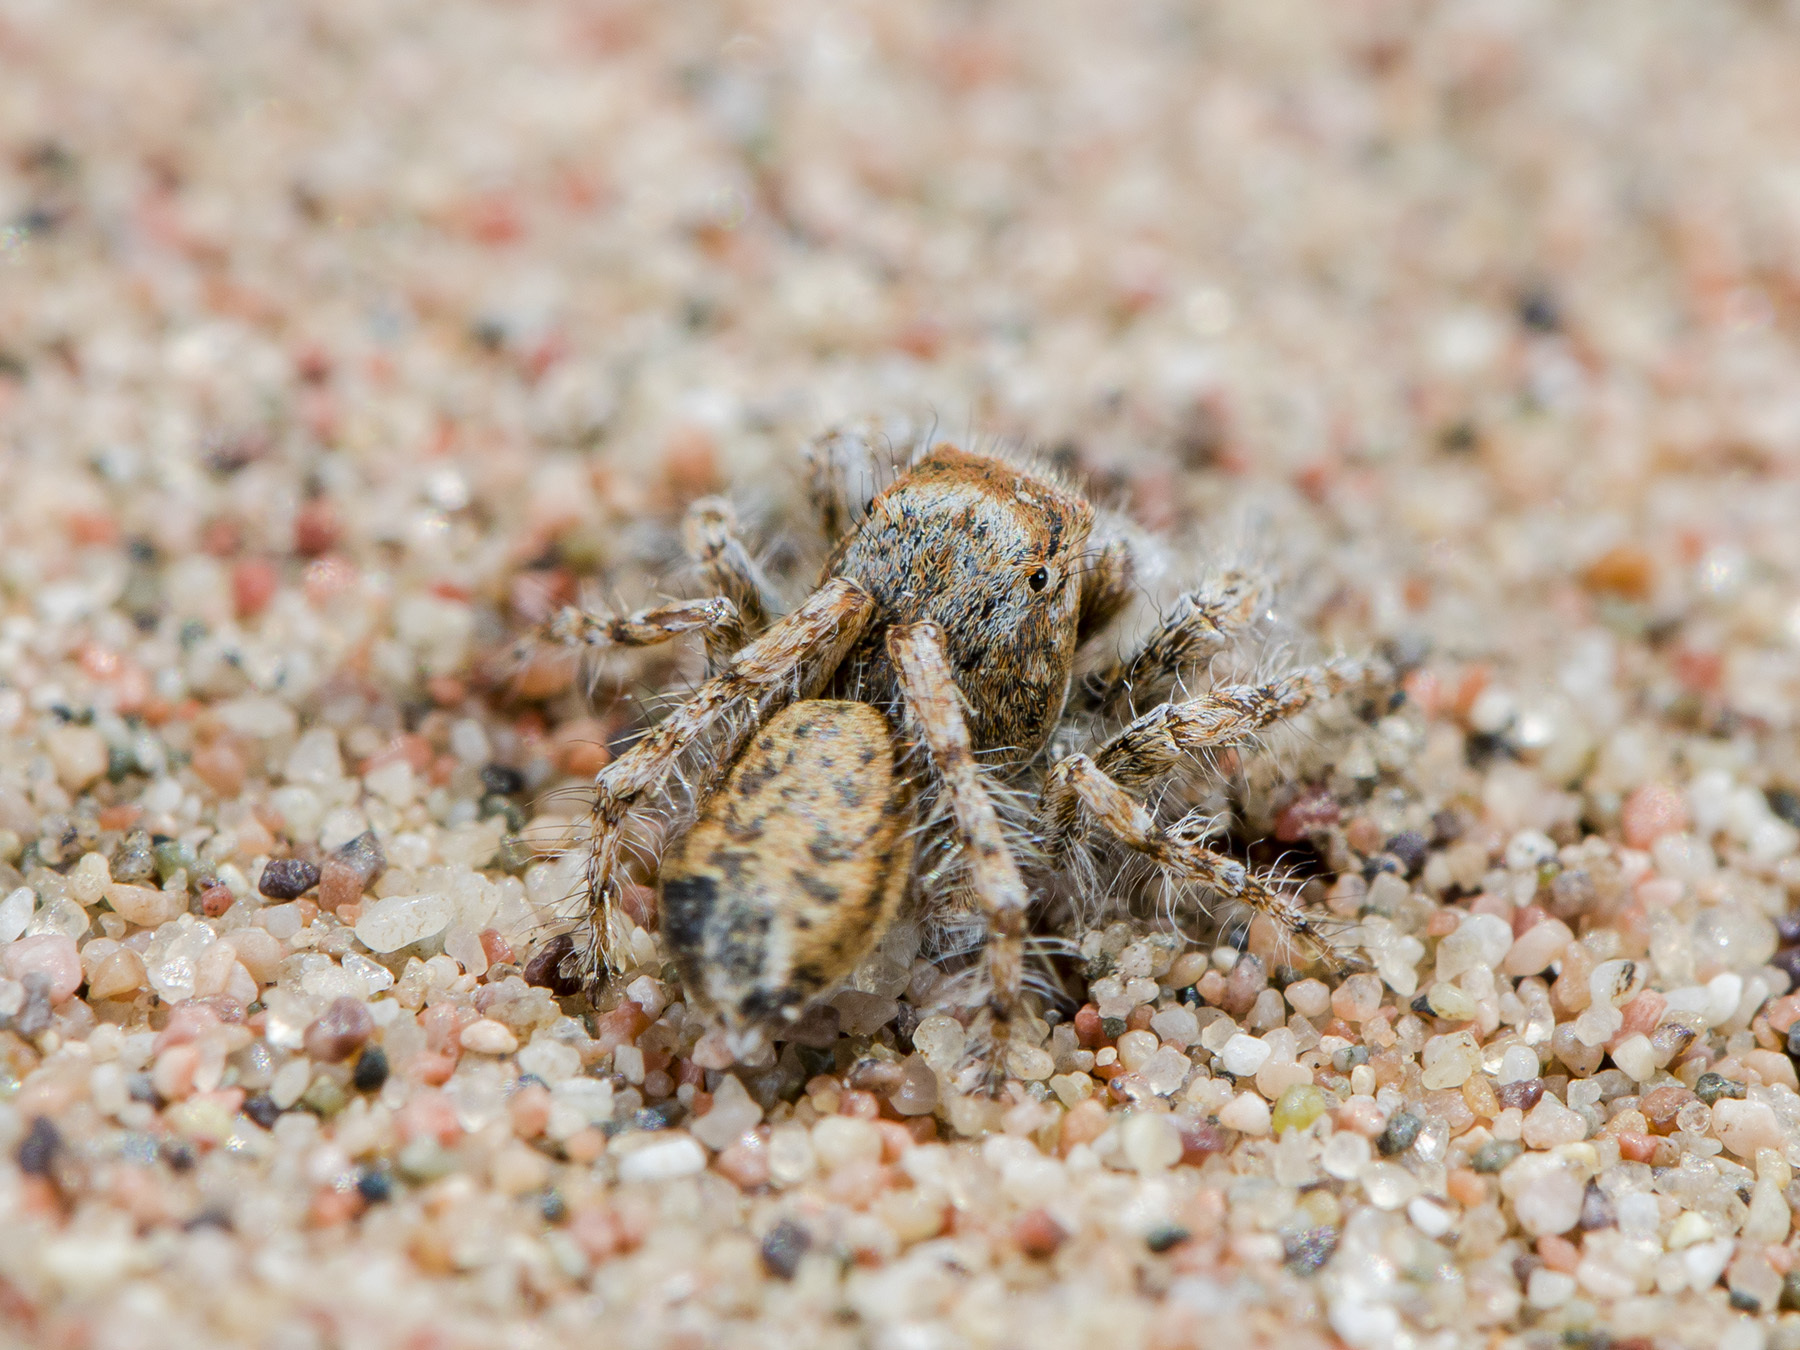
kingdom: Animalia
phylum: Arthropoda
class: Arachnida
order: Araneae
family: Salticidae
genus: Yllenus
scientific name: Yllenus uiguricus
